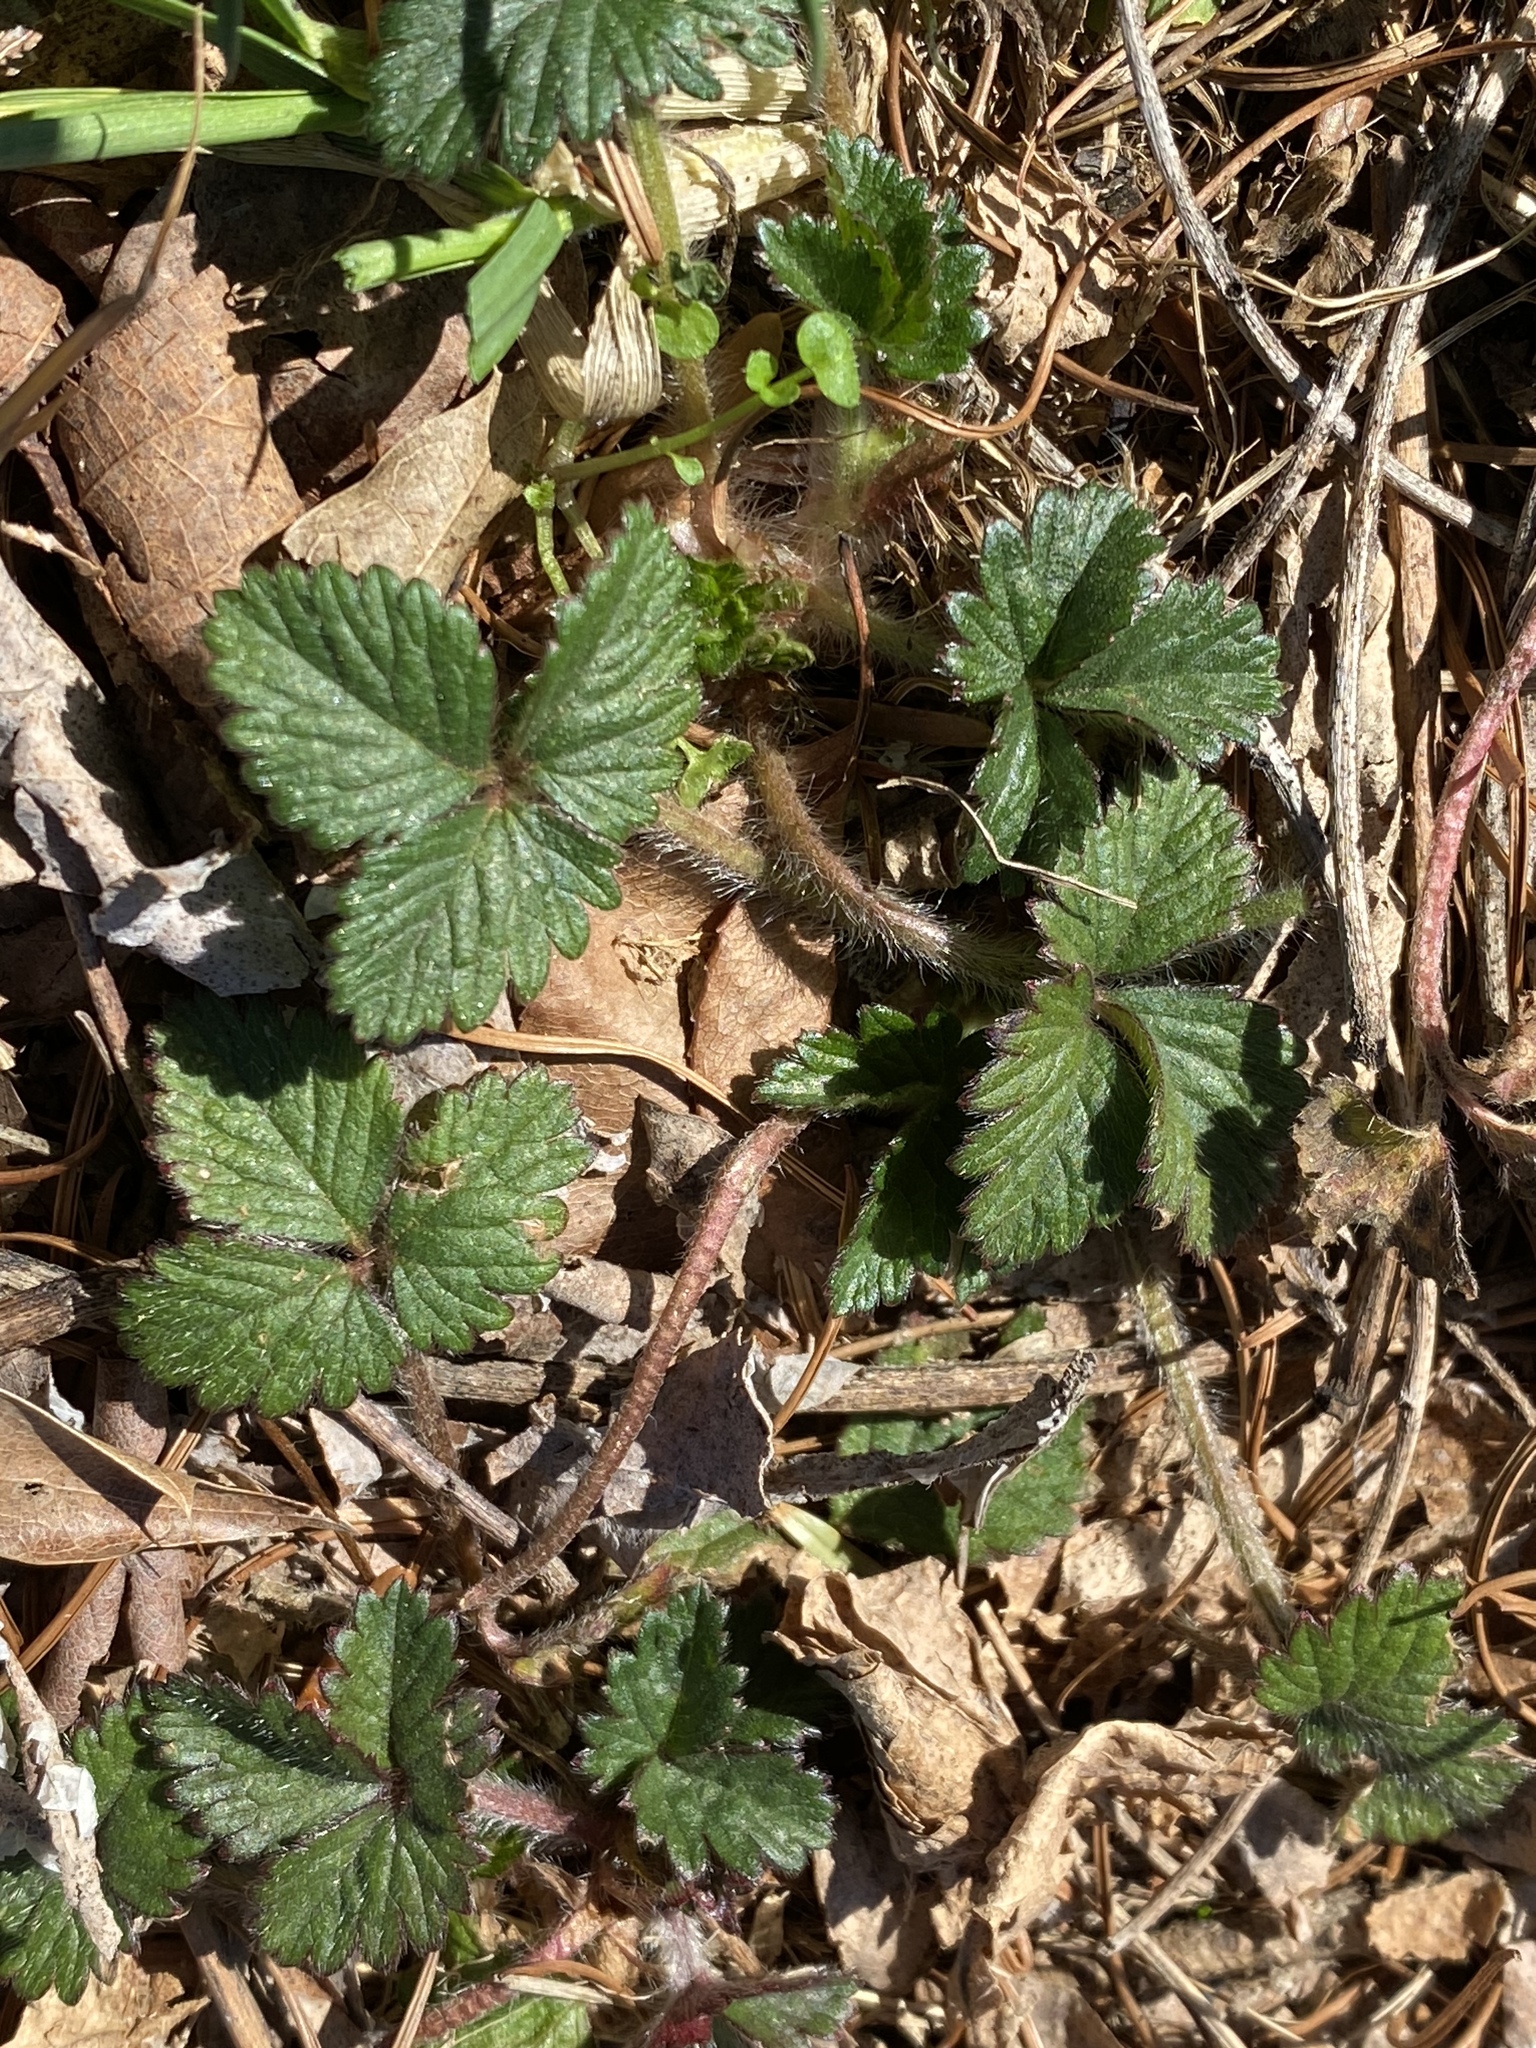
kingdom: Plantae
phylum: Tracheophyta
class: Magnoliopsida
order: Rosales
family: Rosaceae
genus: Potentilla
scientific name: Potentilla indica
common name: Yellow-flowered strawberry
